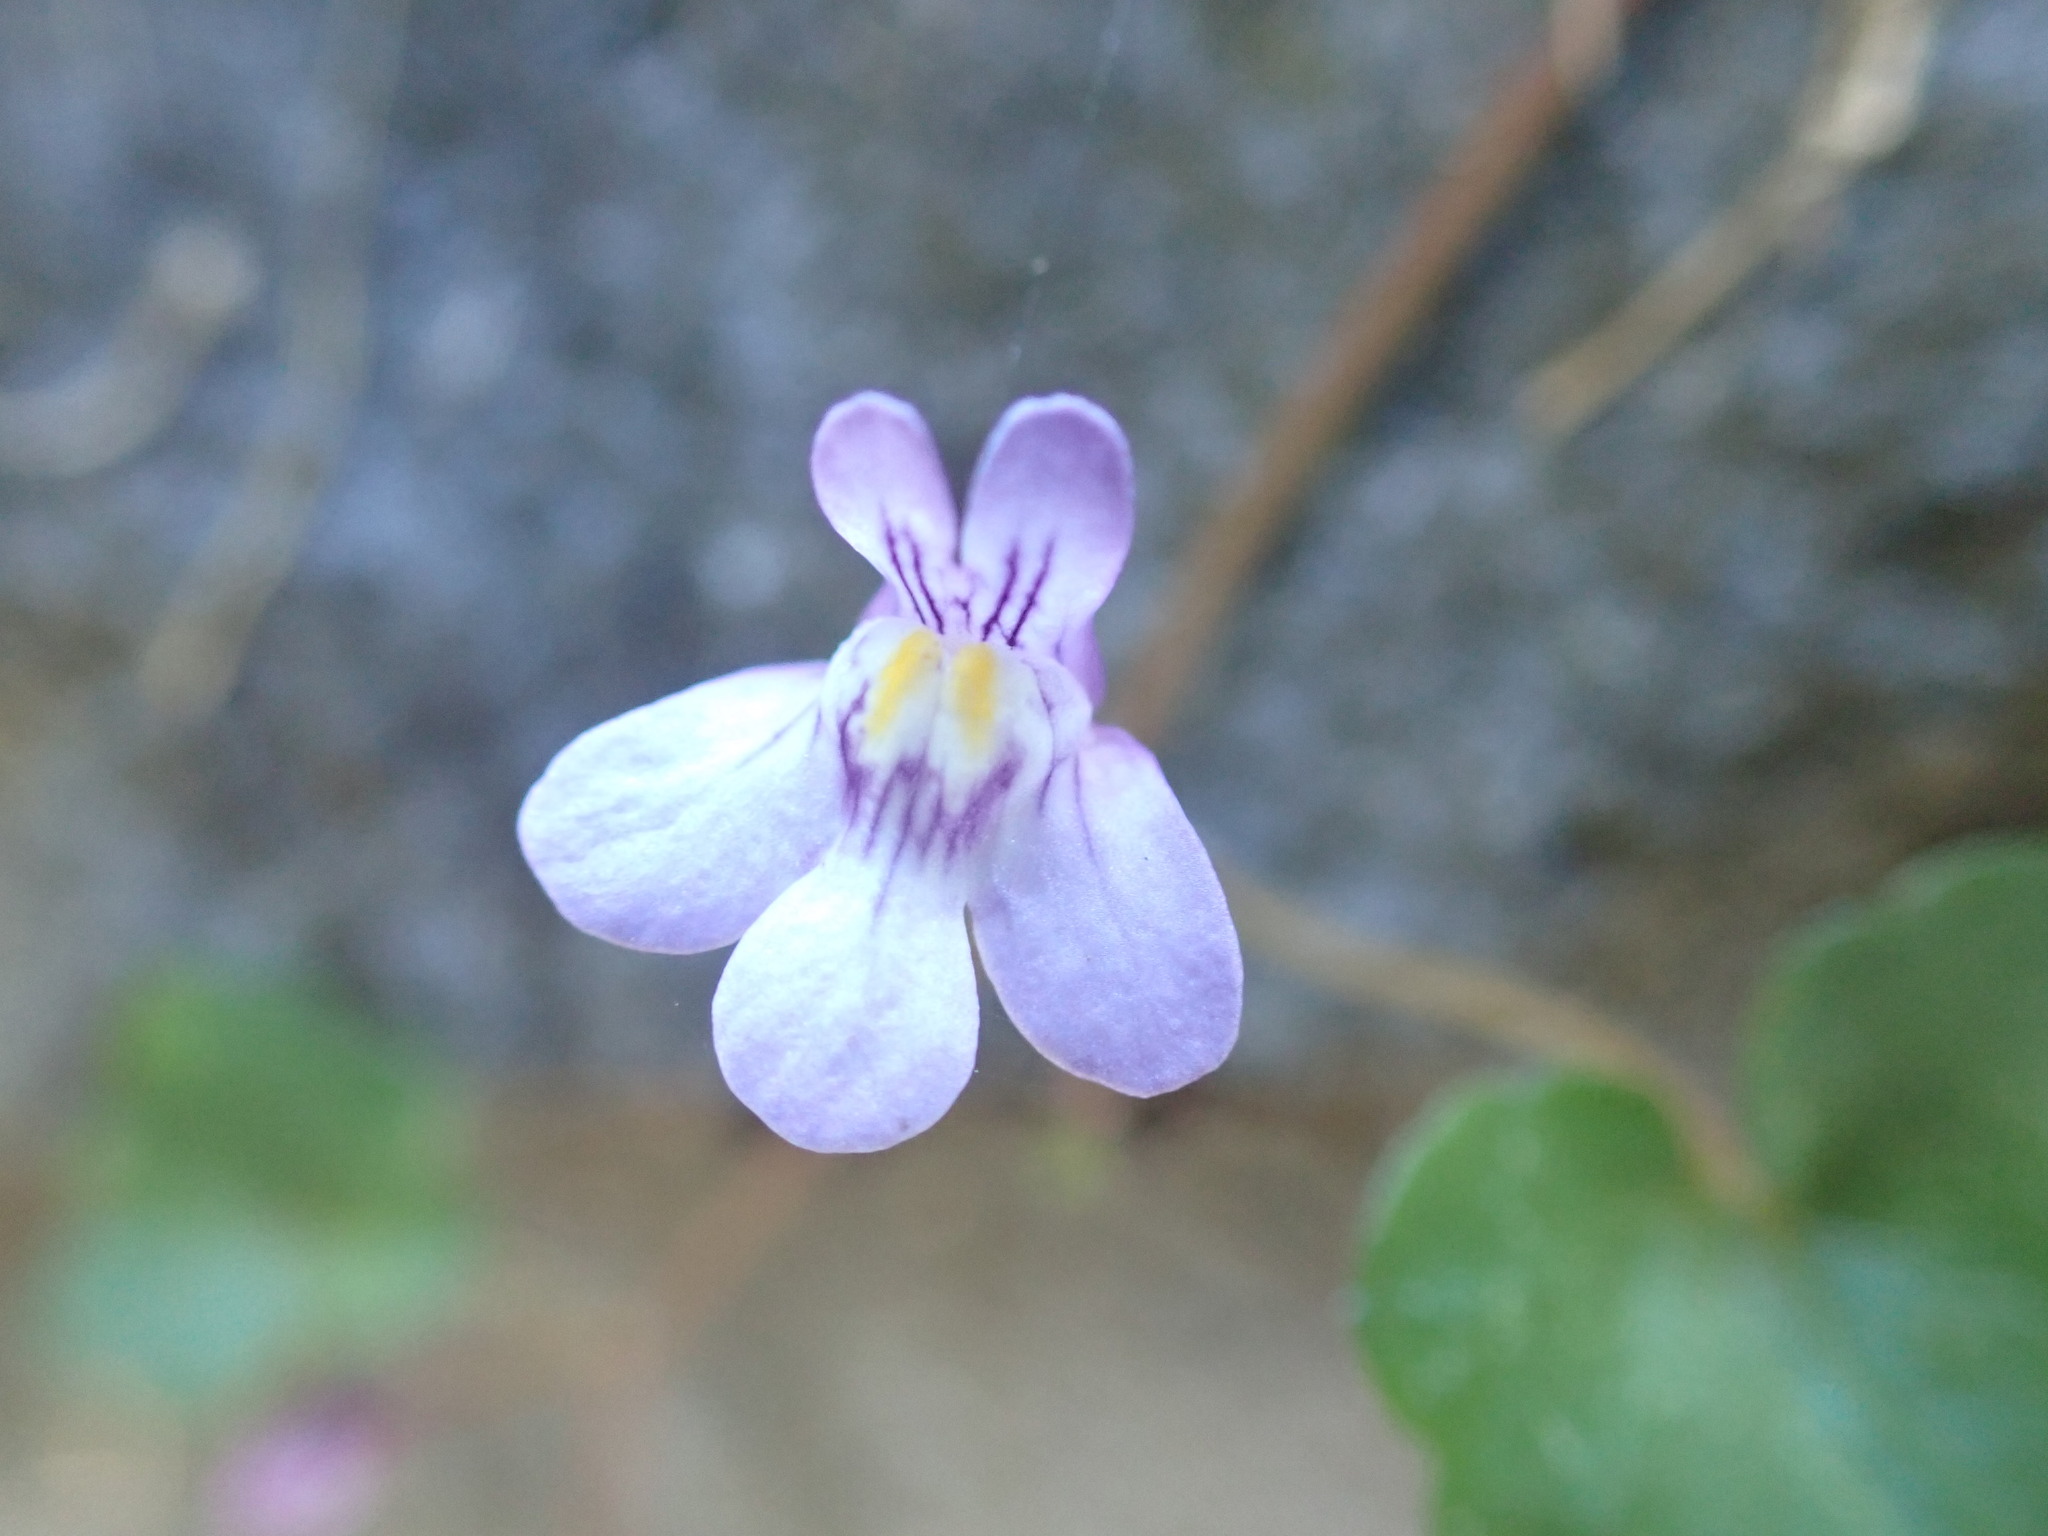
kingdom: Plantae
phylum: Tracheophyta
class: Magnoliopsida
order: Lamiales
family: Plantaginaceae
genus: Cymbalaria
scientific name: Cymbalaria muralis
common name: Ivy-leaved toadflax
